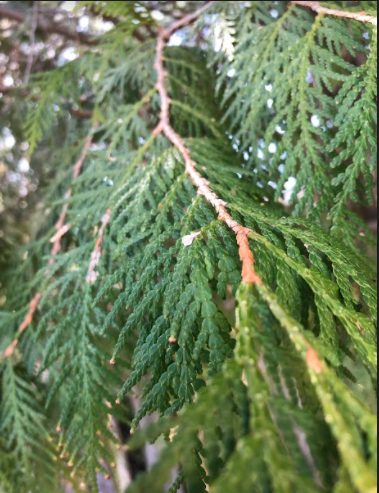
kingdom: Plantae
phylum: Tracheophyta
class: Pinopsida
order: Pinales
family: Cupressaceae
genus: Thuja
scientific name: Thuja occidentalis
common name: Northern white-cedar
